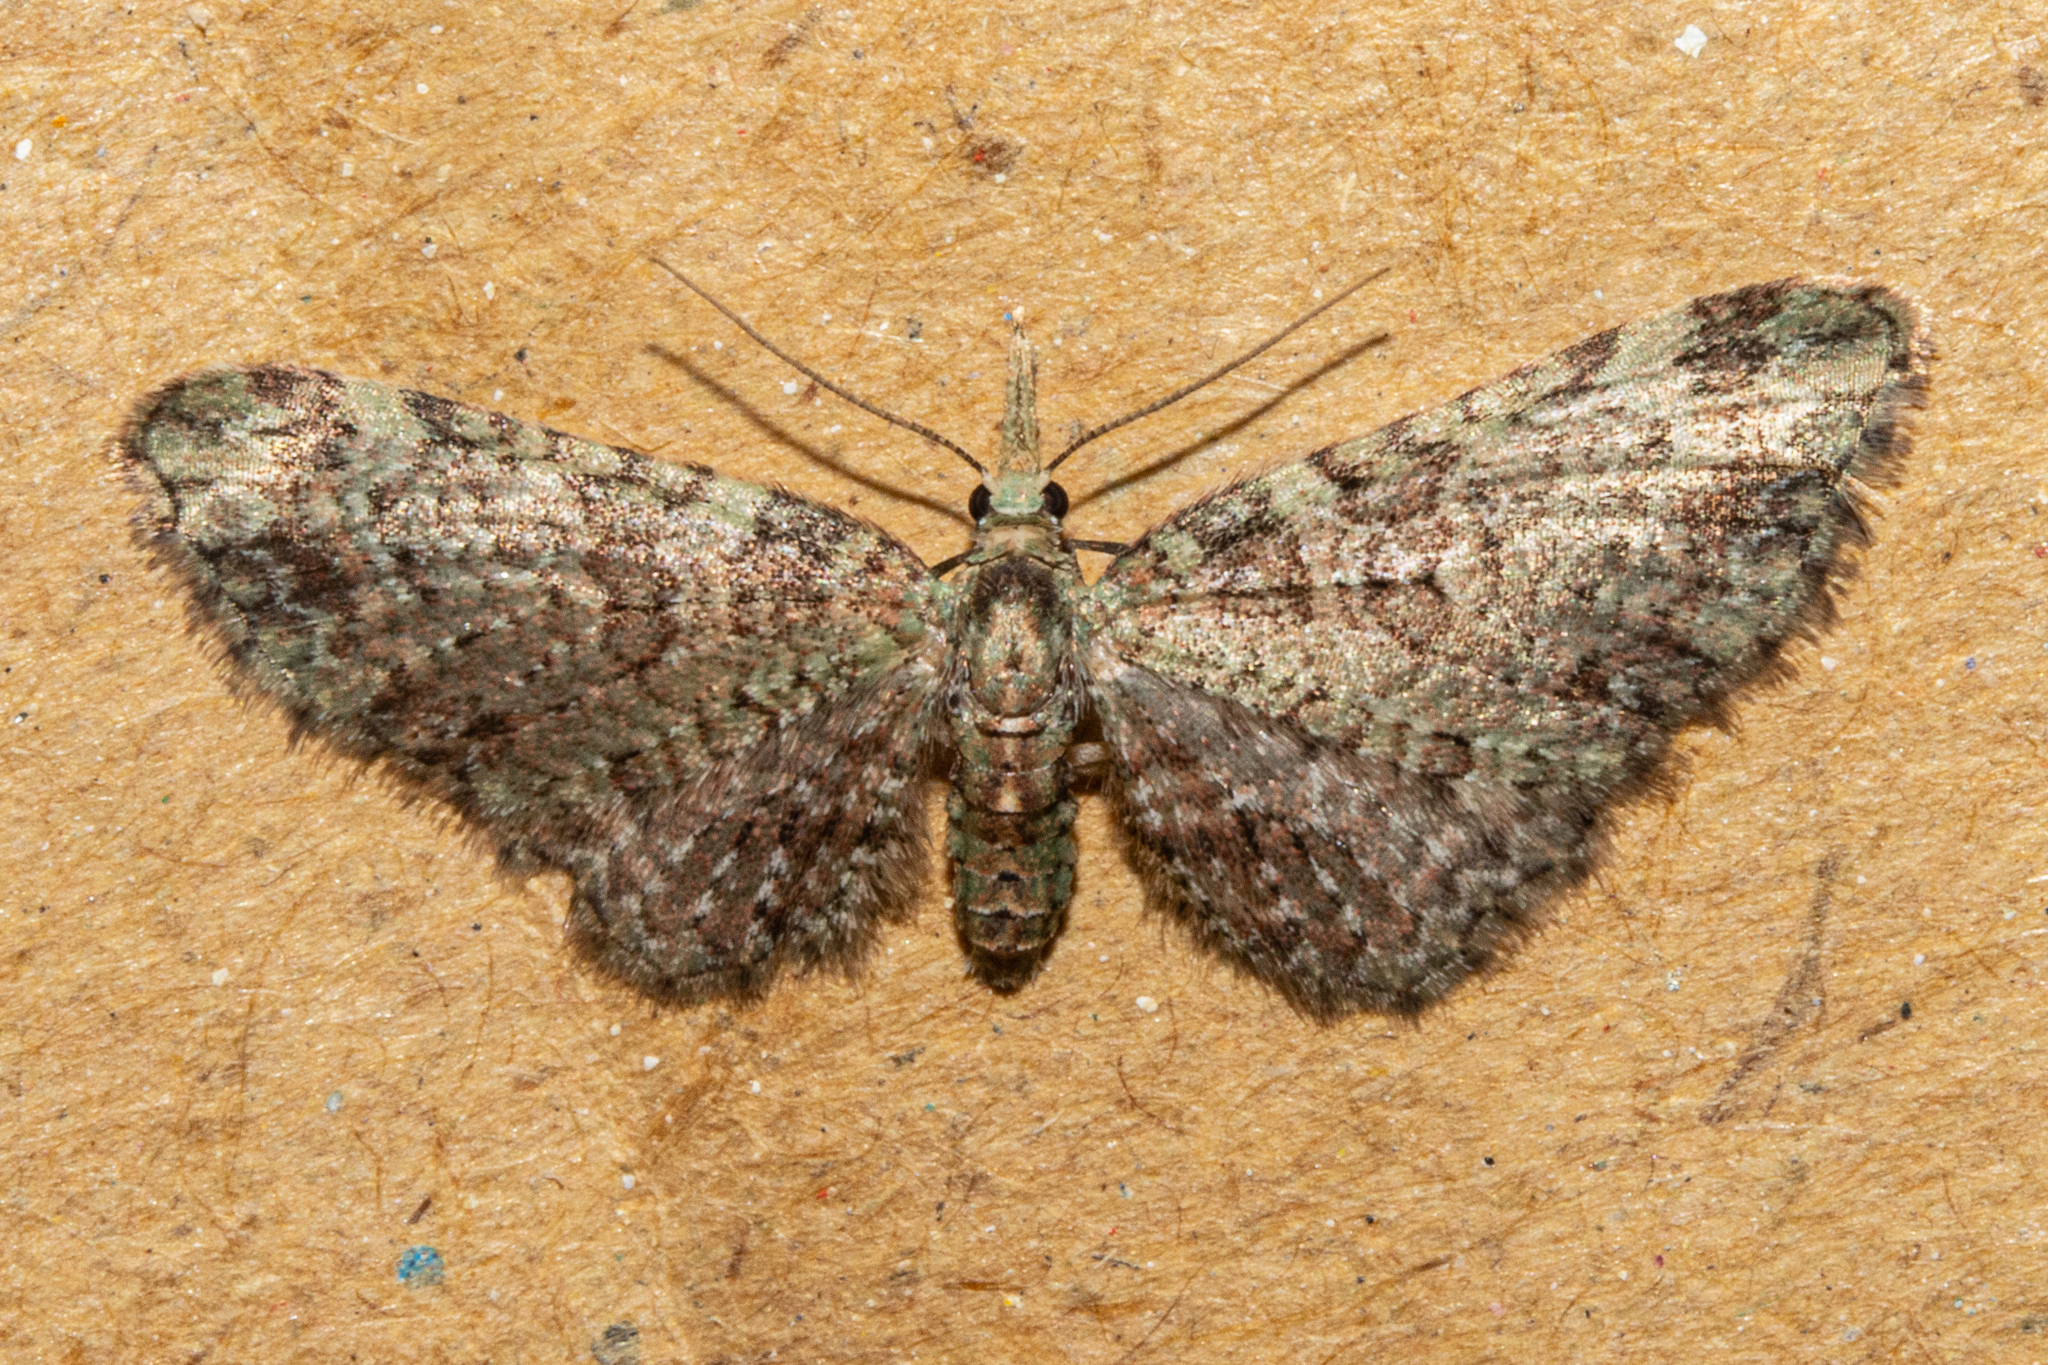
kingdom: Animalia
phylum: Arthropoda
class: Insecta
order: Lepidoptera
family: Geometridae
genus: Pasiphila
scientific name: Pasiphila plinthina
